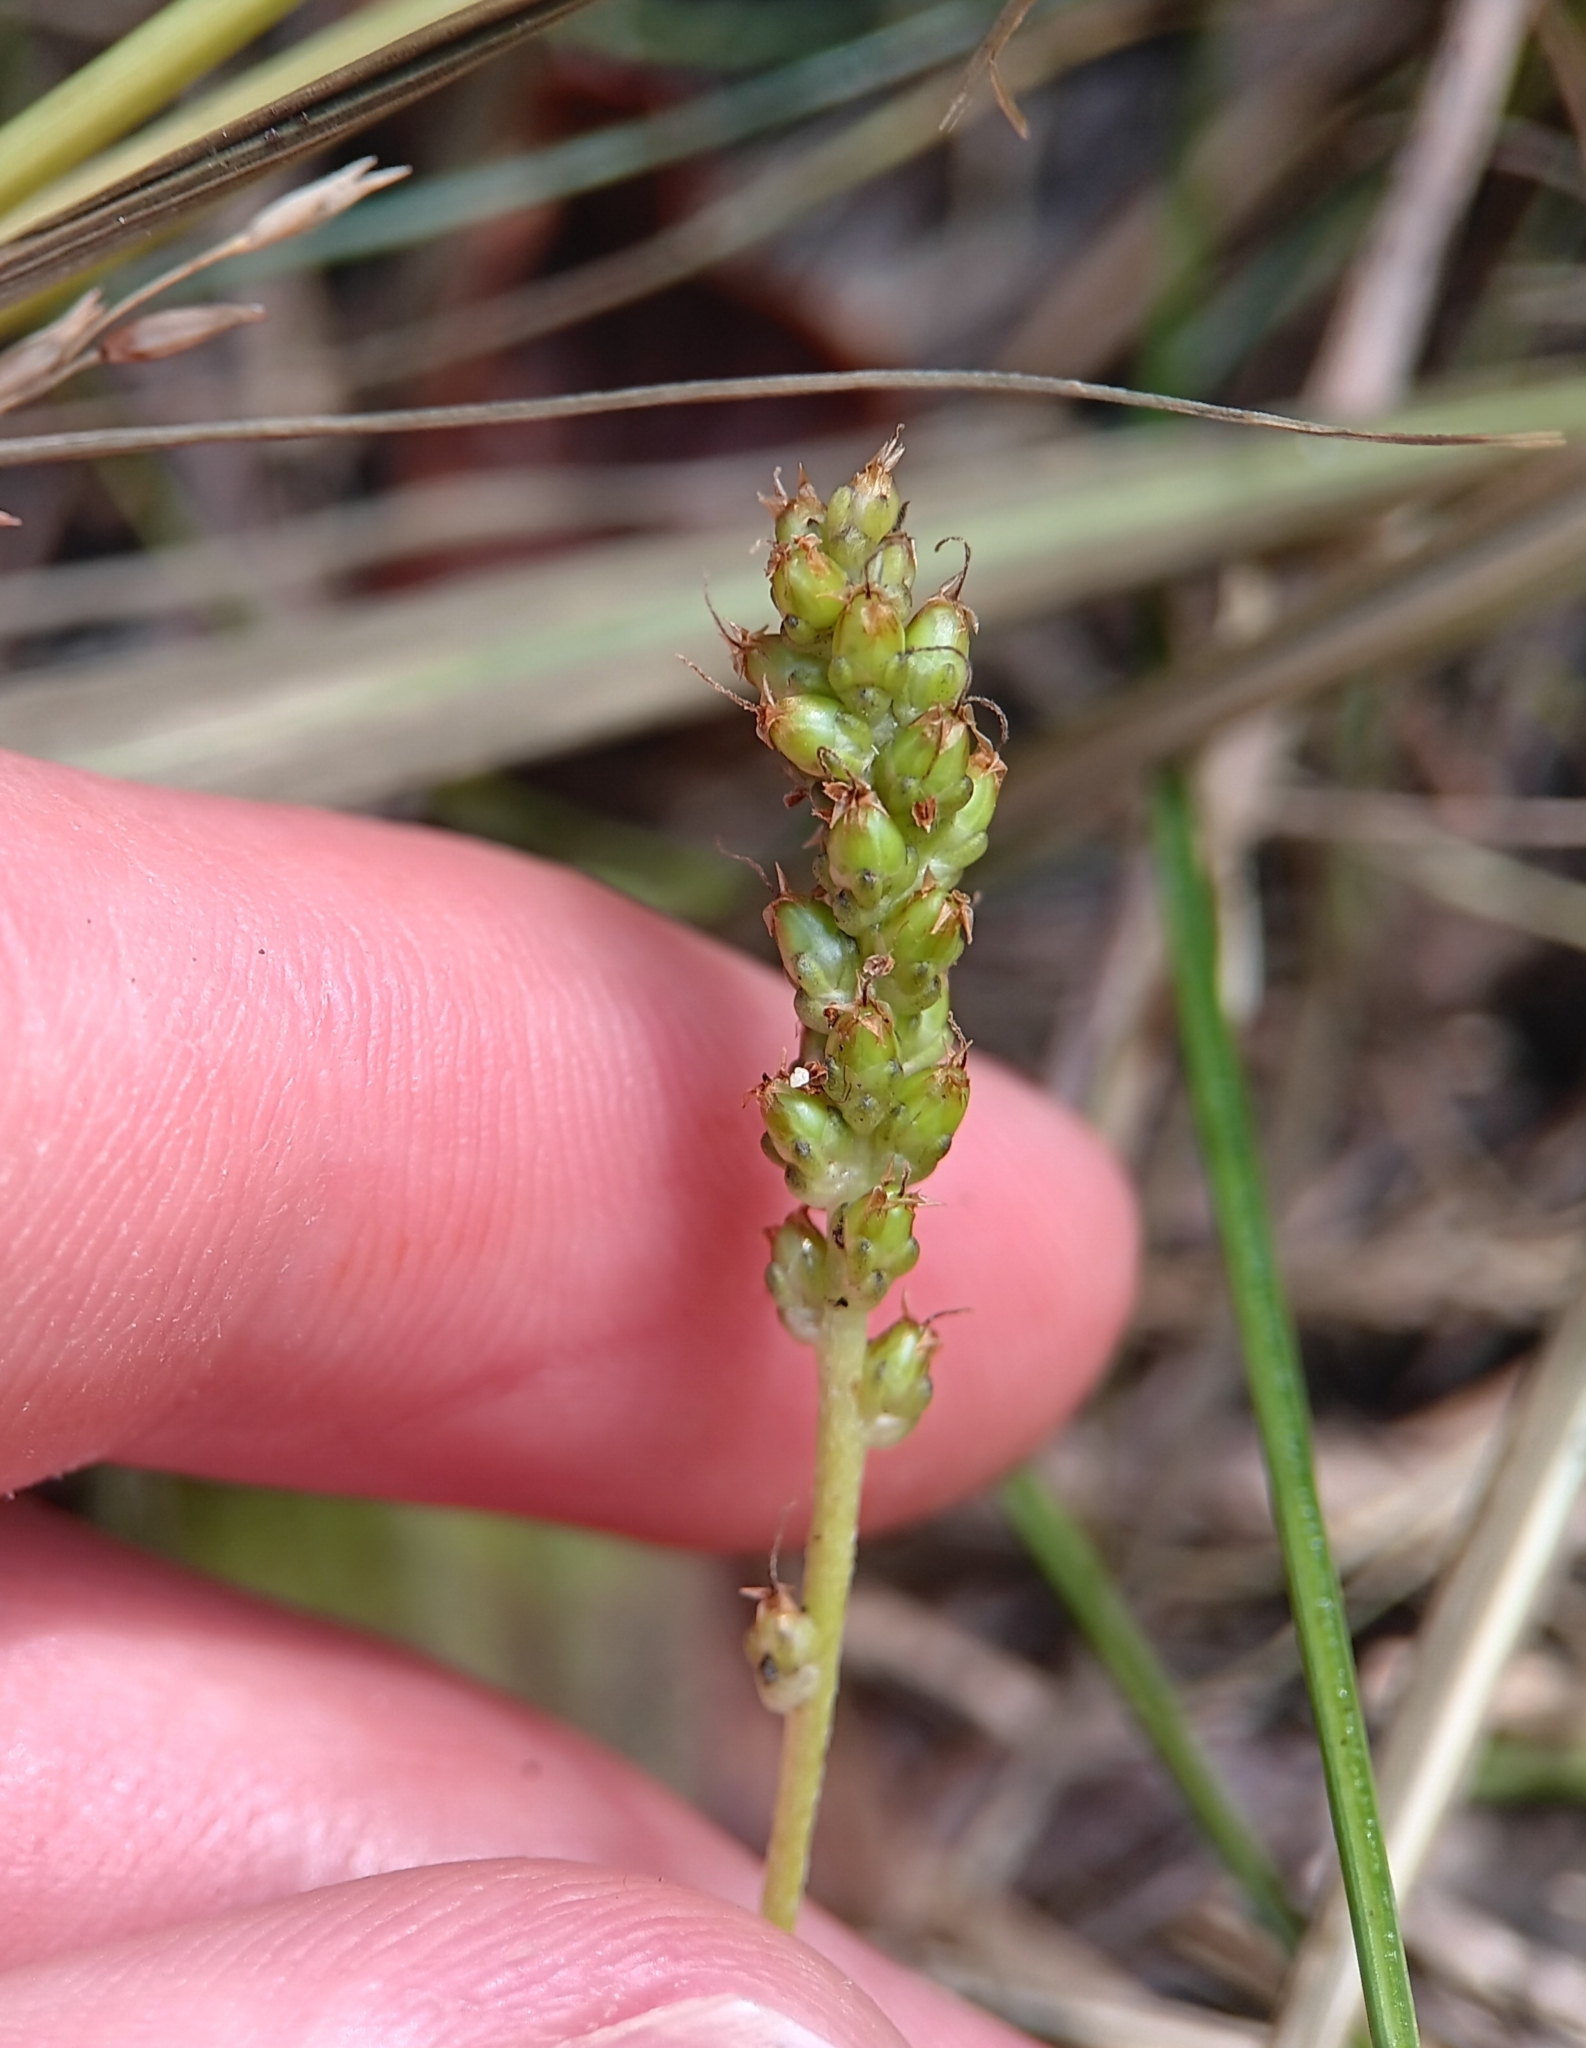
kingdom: Plantae
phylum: Tracheophyta
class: Magnoliopsida
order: Lamiales
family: Plantaginaceae
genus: Plantago
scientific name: Plantago major
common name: Common plantain
